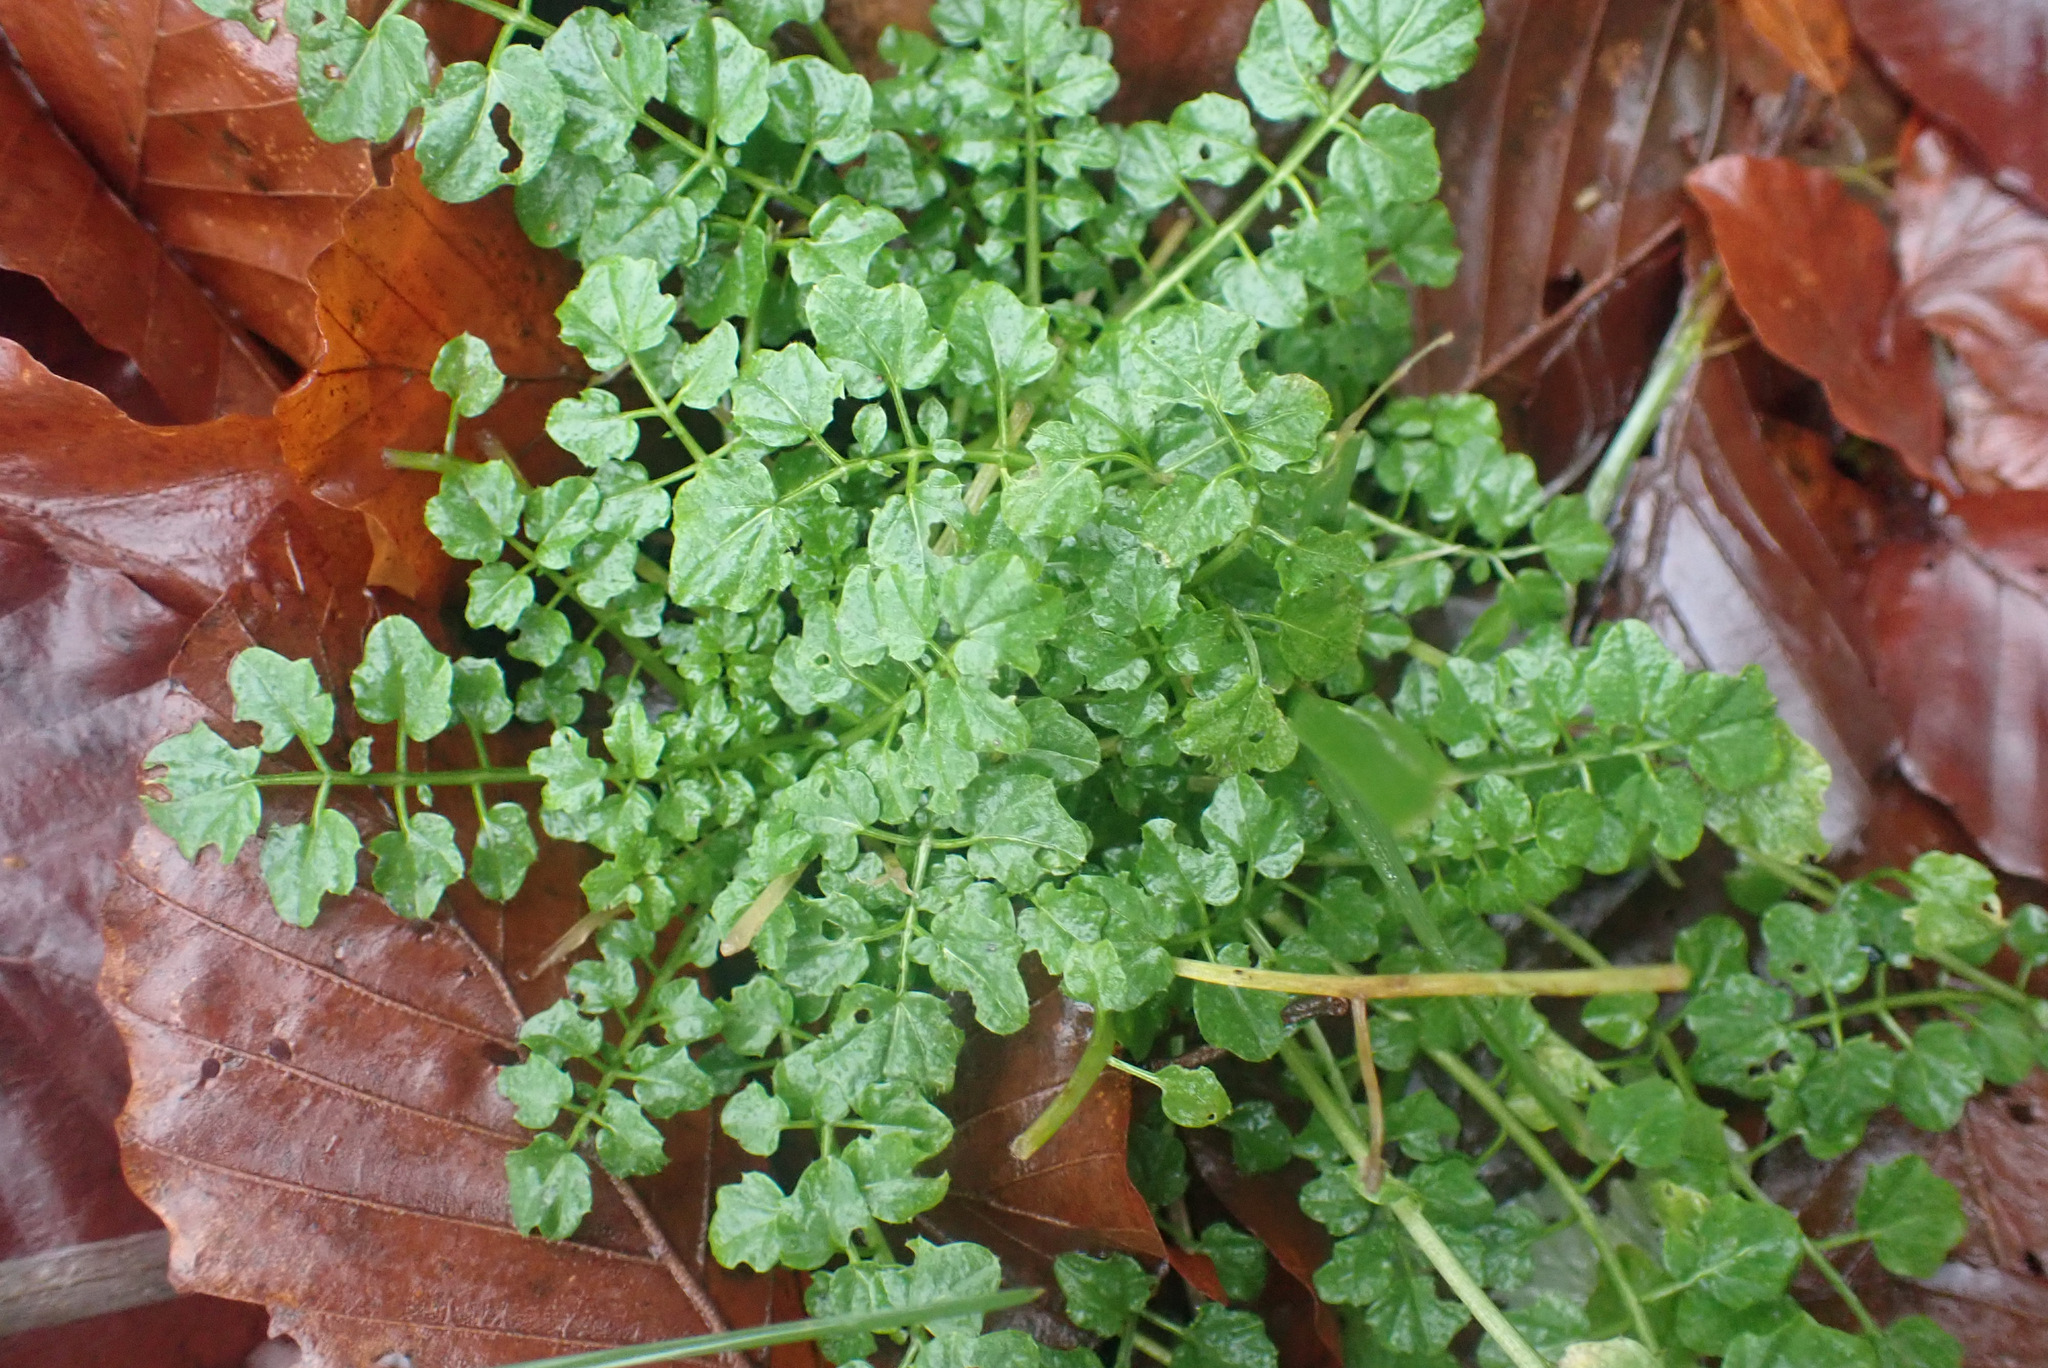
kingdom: Plantae
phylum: Tracheophyta
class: Magnoliopsida
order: Brassicales
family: Brassicaceae
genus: Cardamine
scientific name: Cardamine flexuosa
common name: Woodland bittercress
